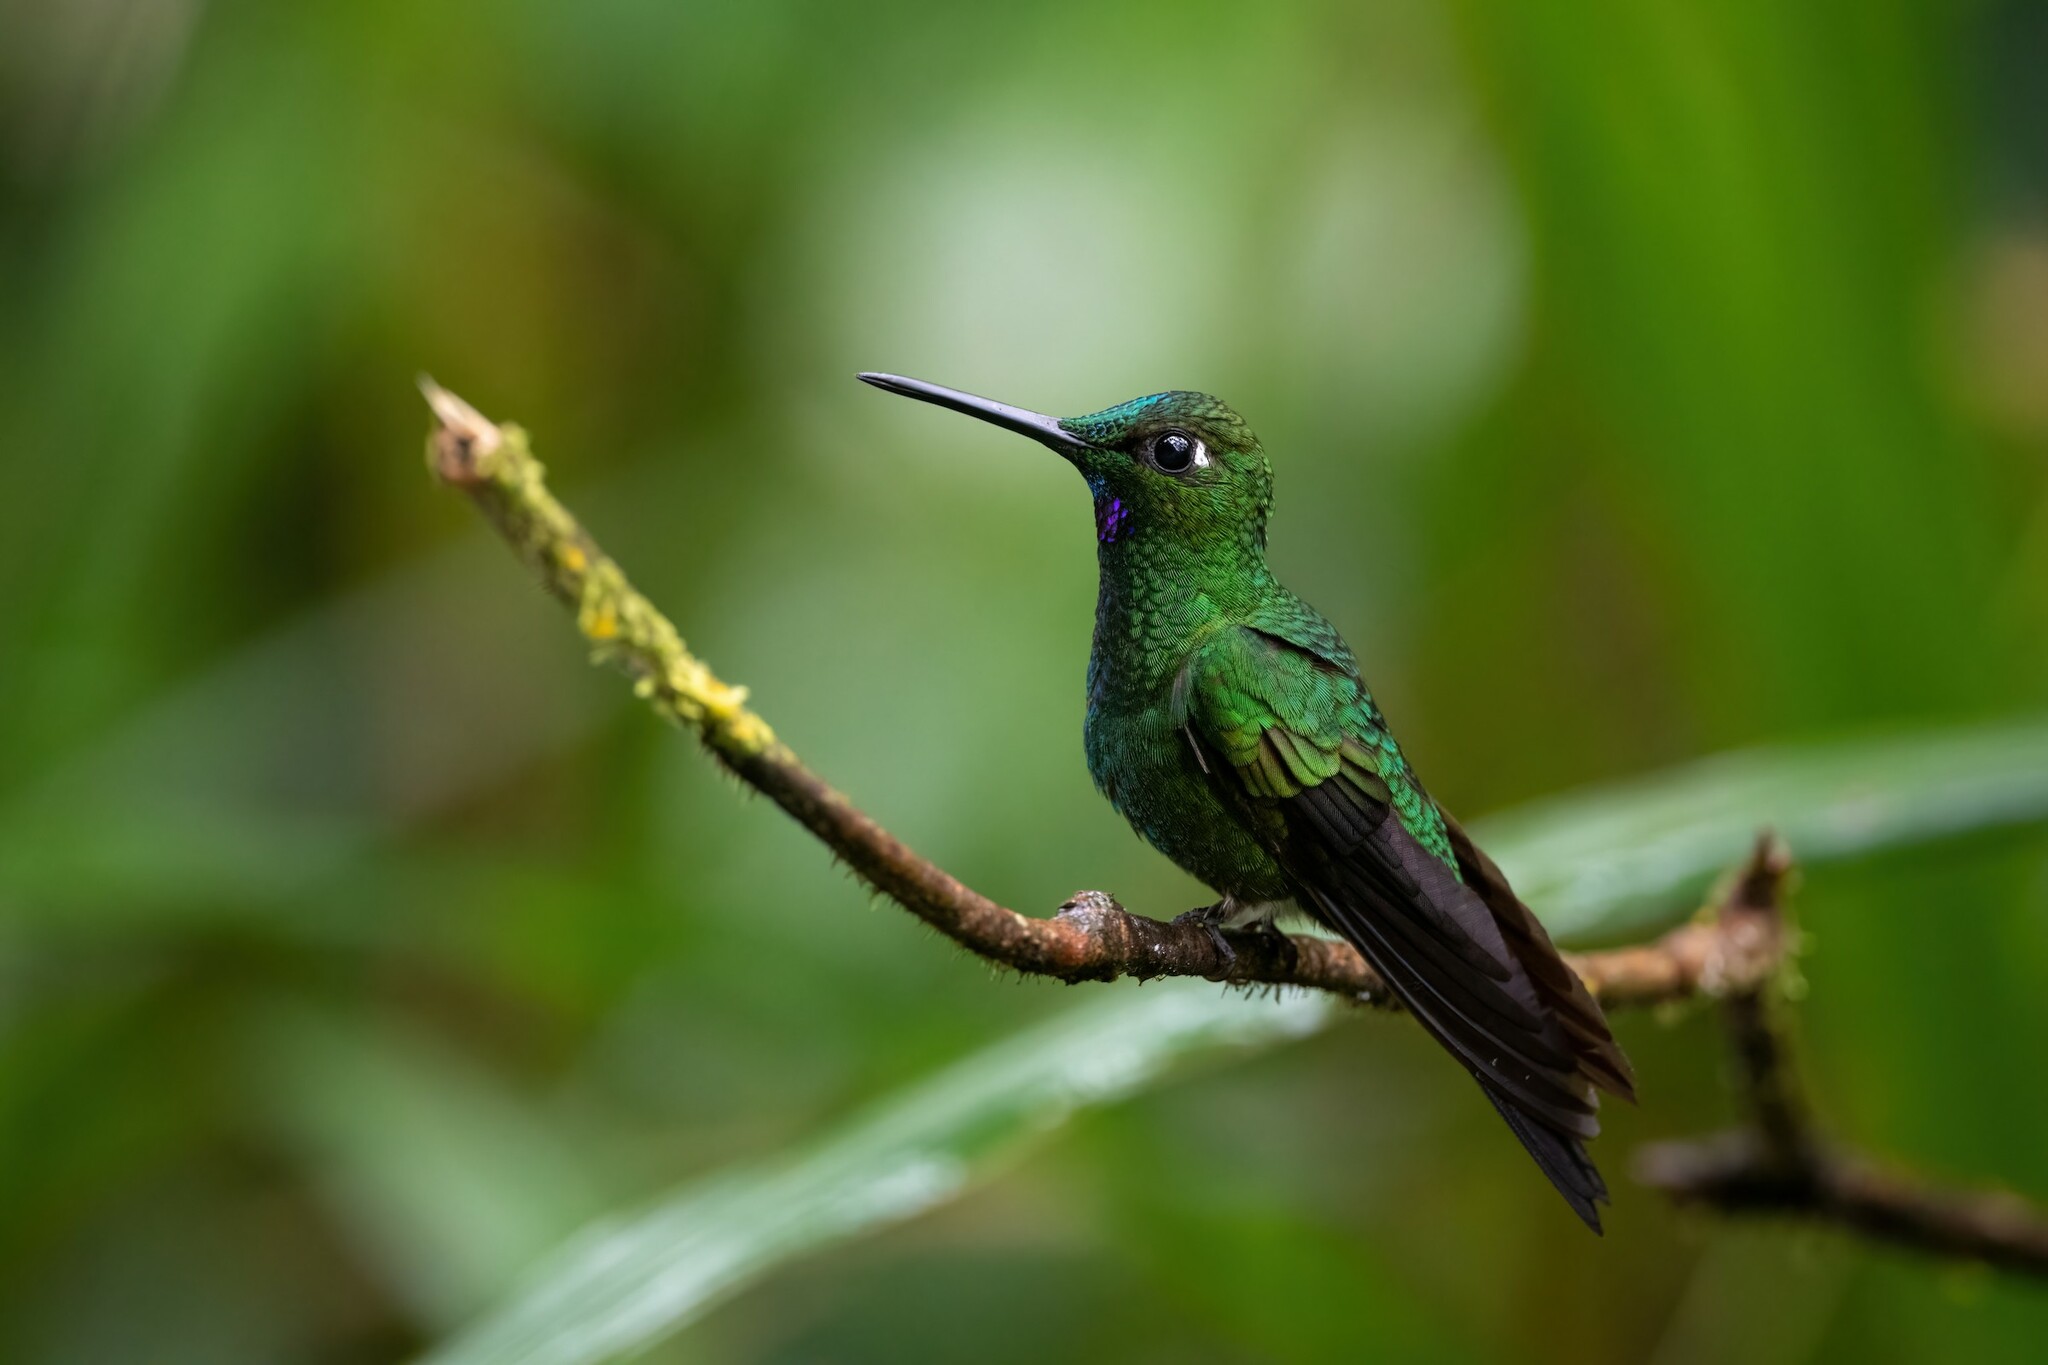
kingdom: Animalia
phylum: Chordata
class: Aves
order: Apodiformes
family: Trochilidae
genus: Heliodoxa
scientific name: Heliodoxa jacula
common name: Green-crowned brilliant
